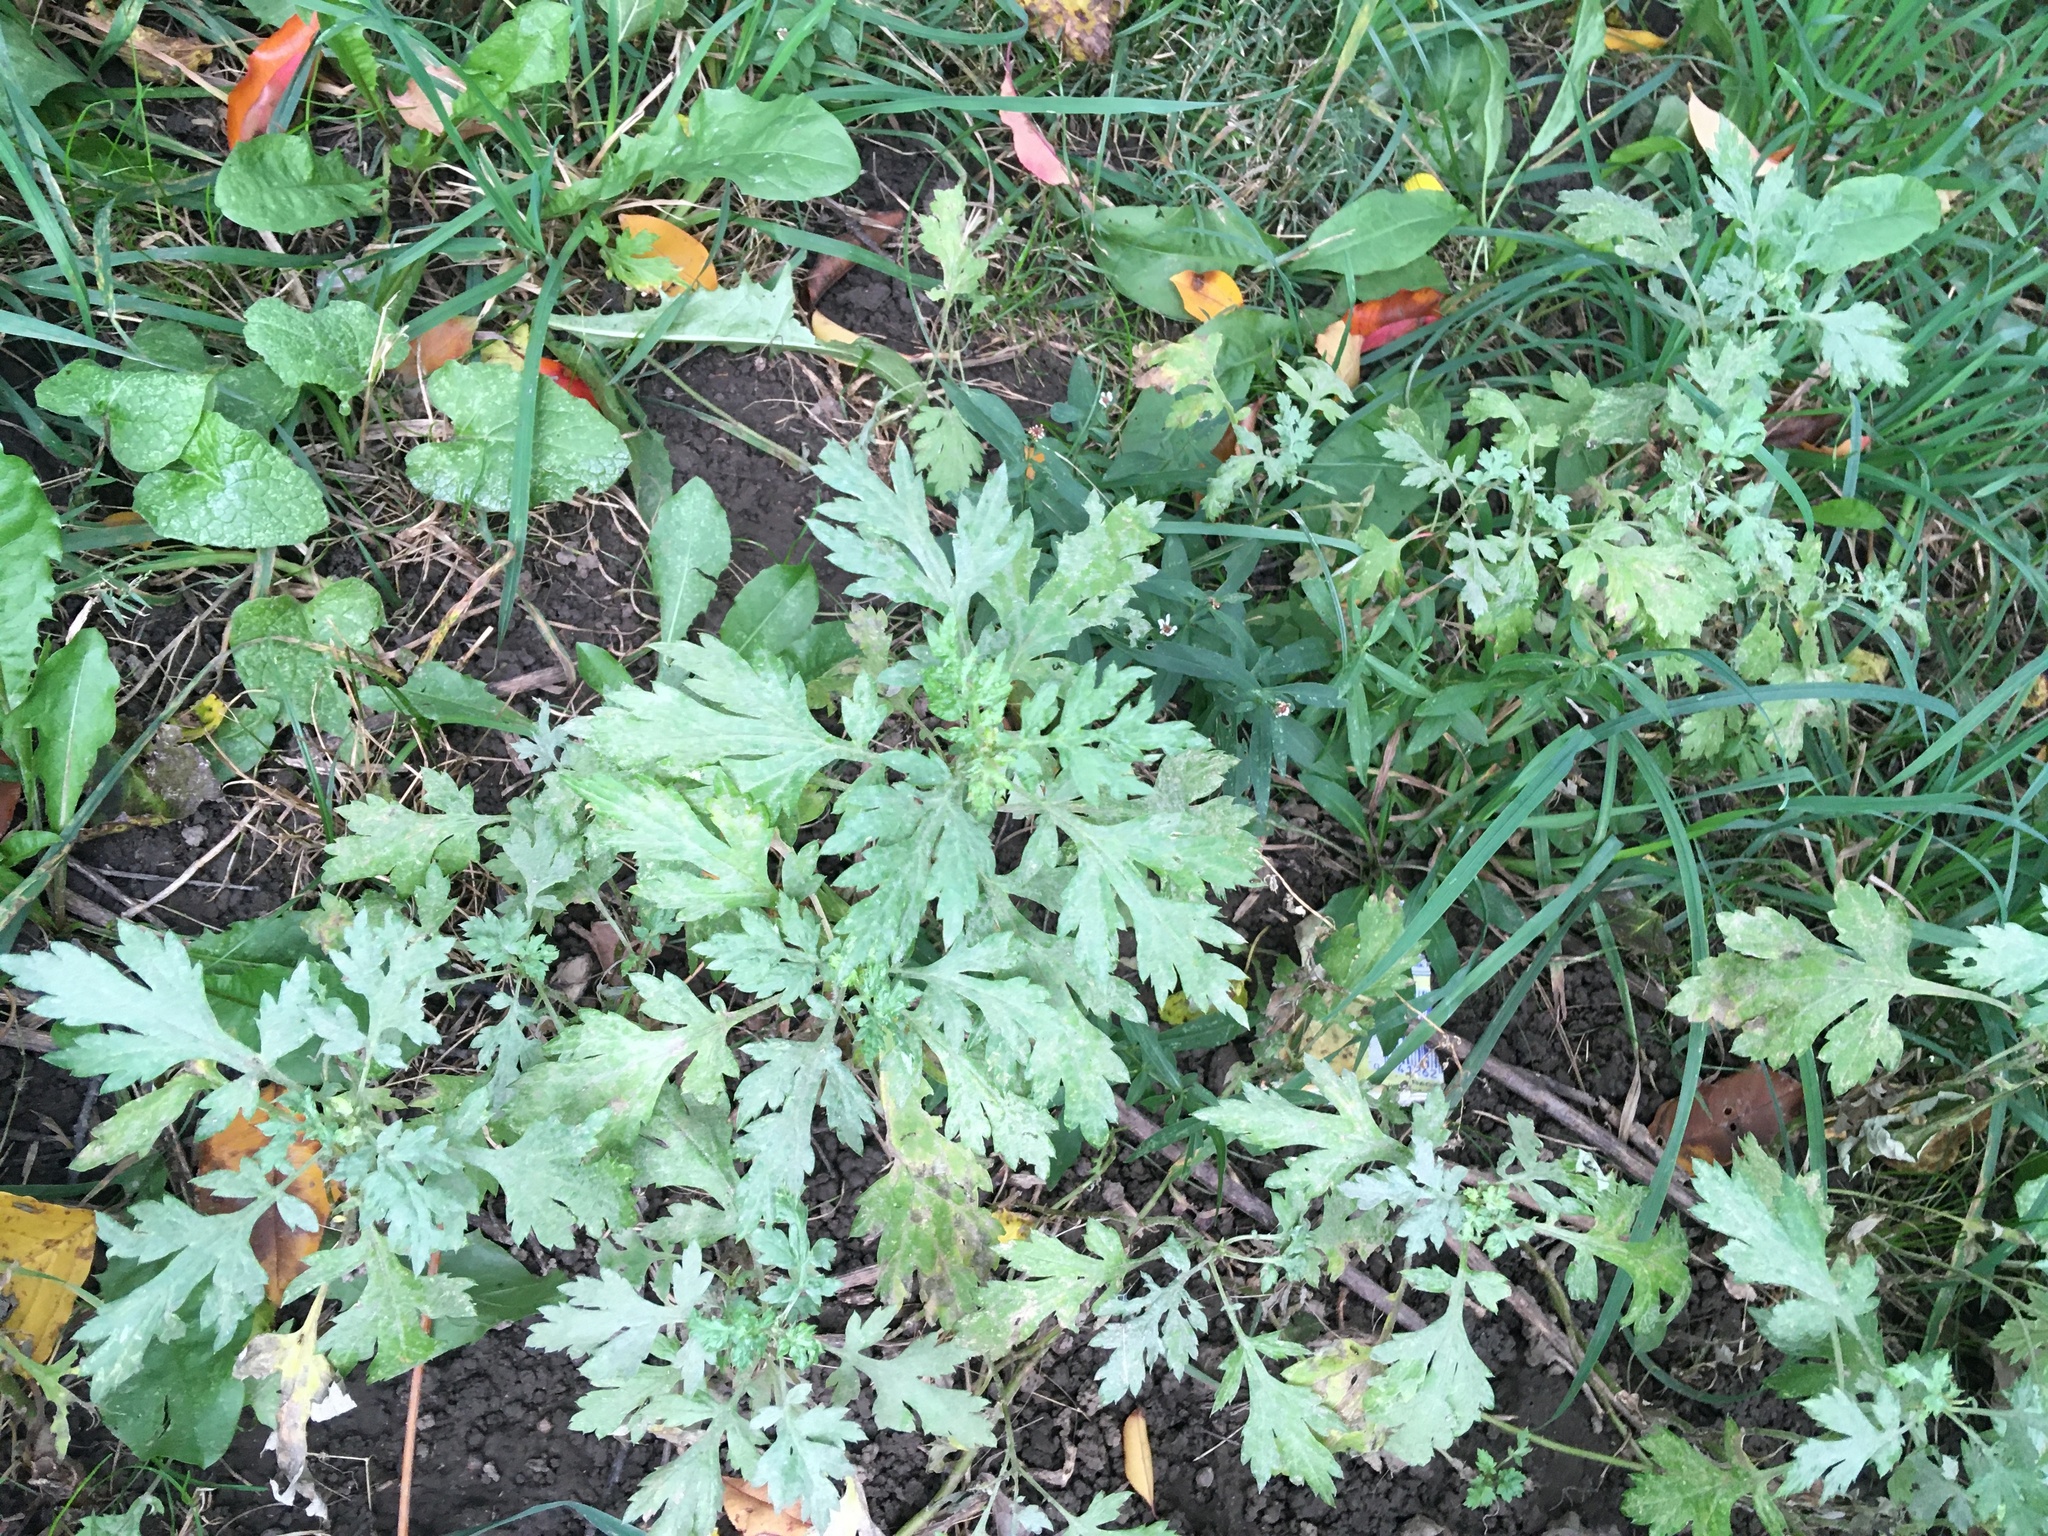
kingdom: Plantae
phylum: Tracheophyta
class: Magnoliopsida
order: Asterales
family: Asteraceae
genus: Artemisia
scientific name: Artemisia vulgaris
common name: Mugwort
